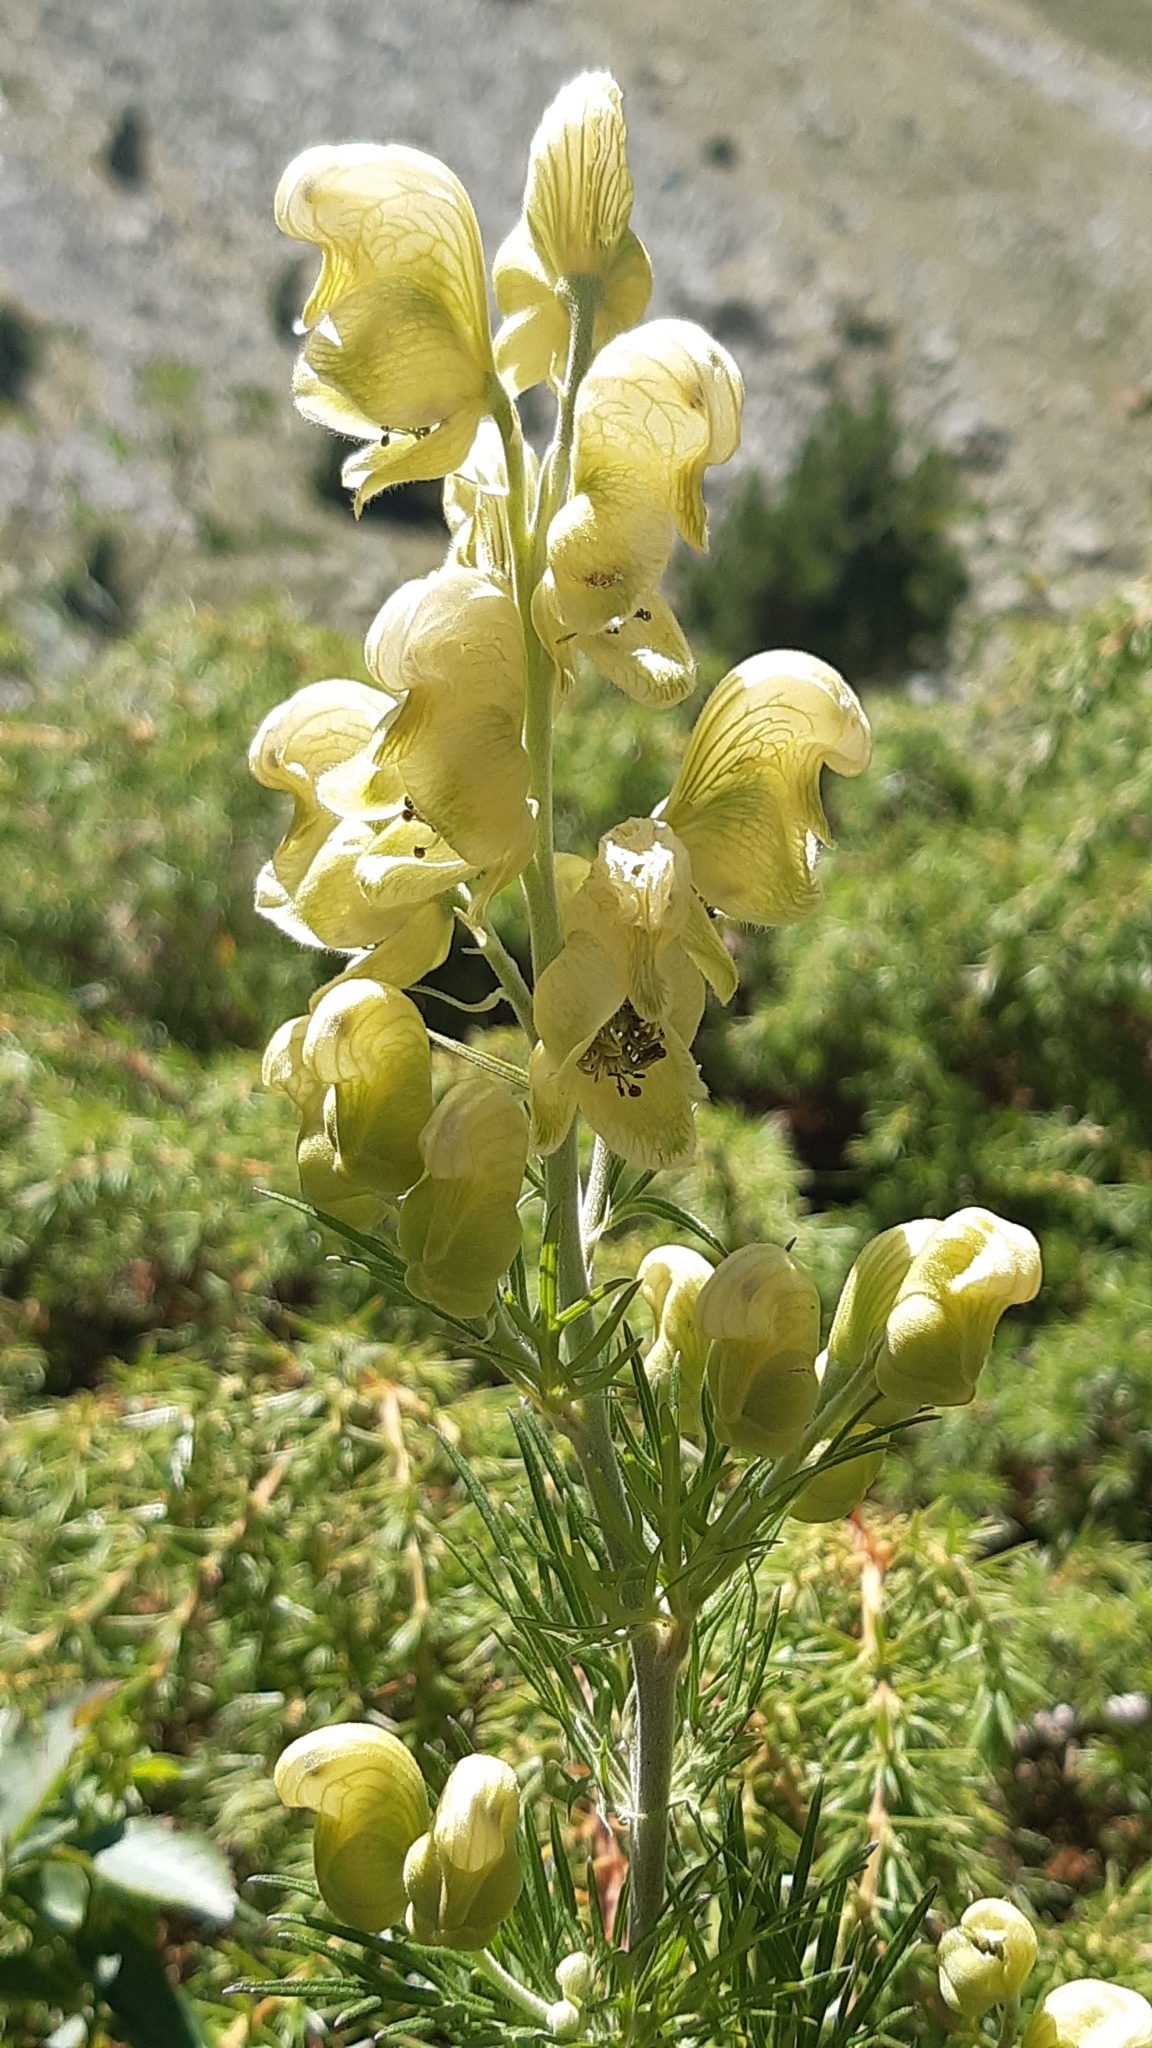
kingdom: Plantae
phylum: Tracheophyta
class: Magnoliopsida
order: Ranunculales
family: Ranunculaceae
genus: Aconitum
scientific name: Aconitum anthora
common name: Yellow monkshood
